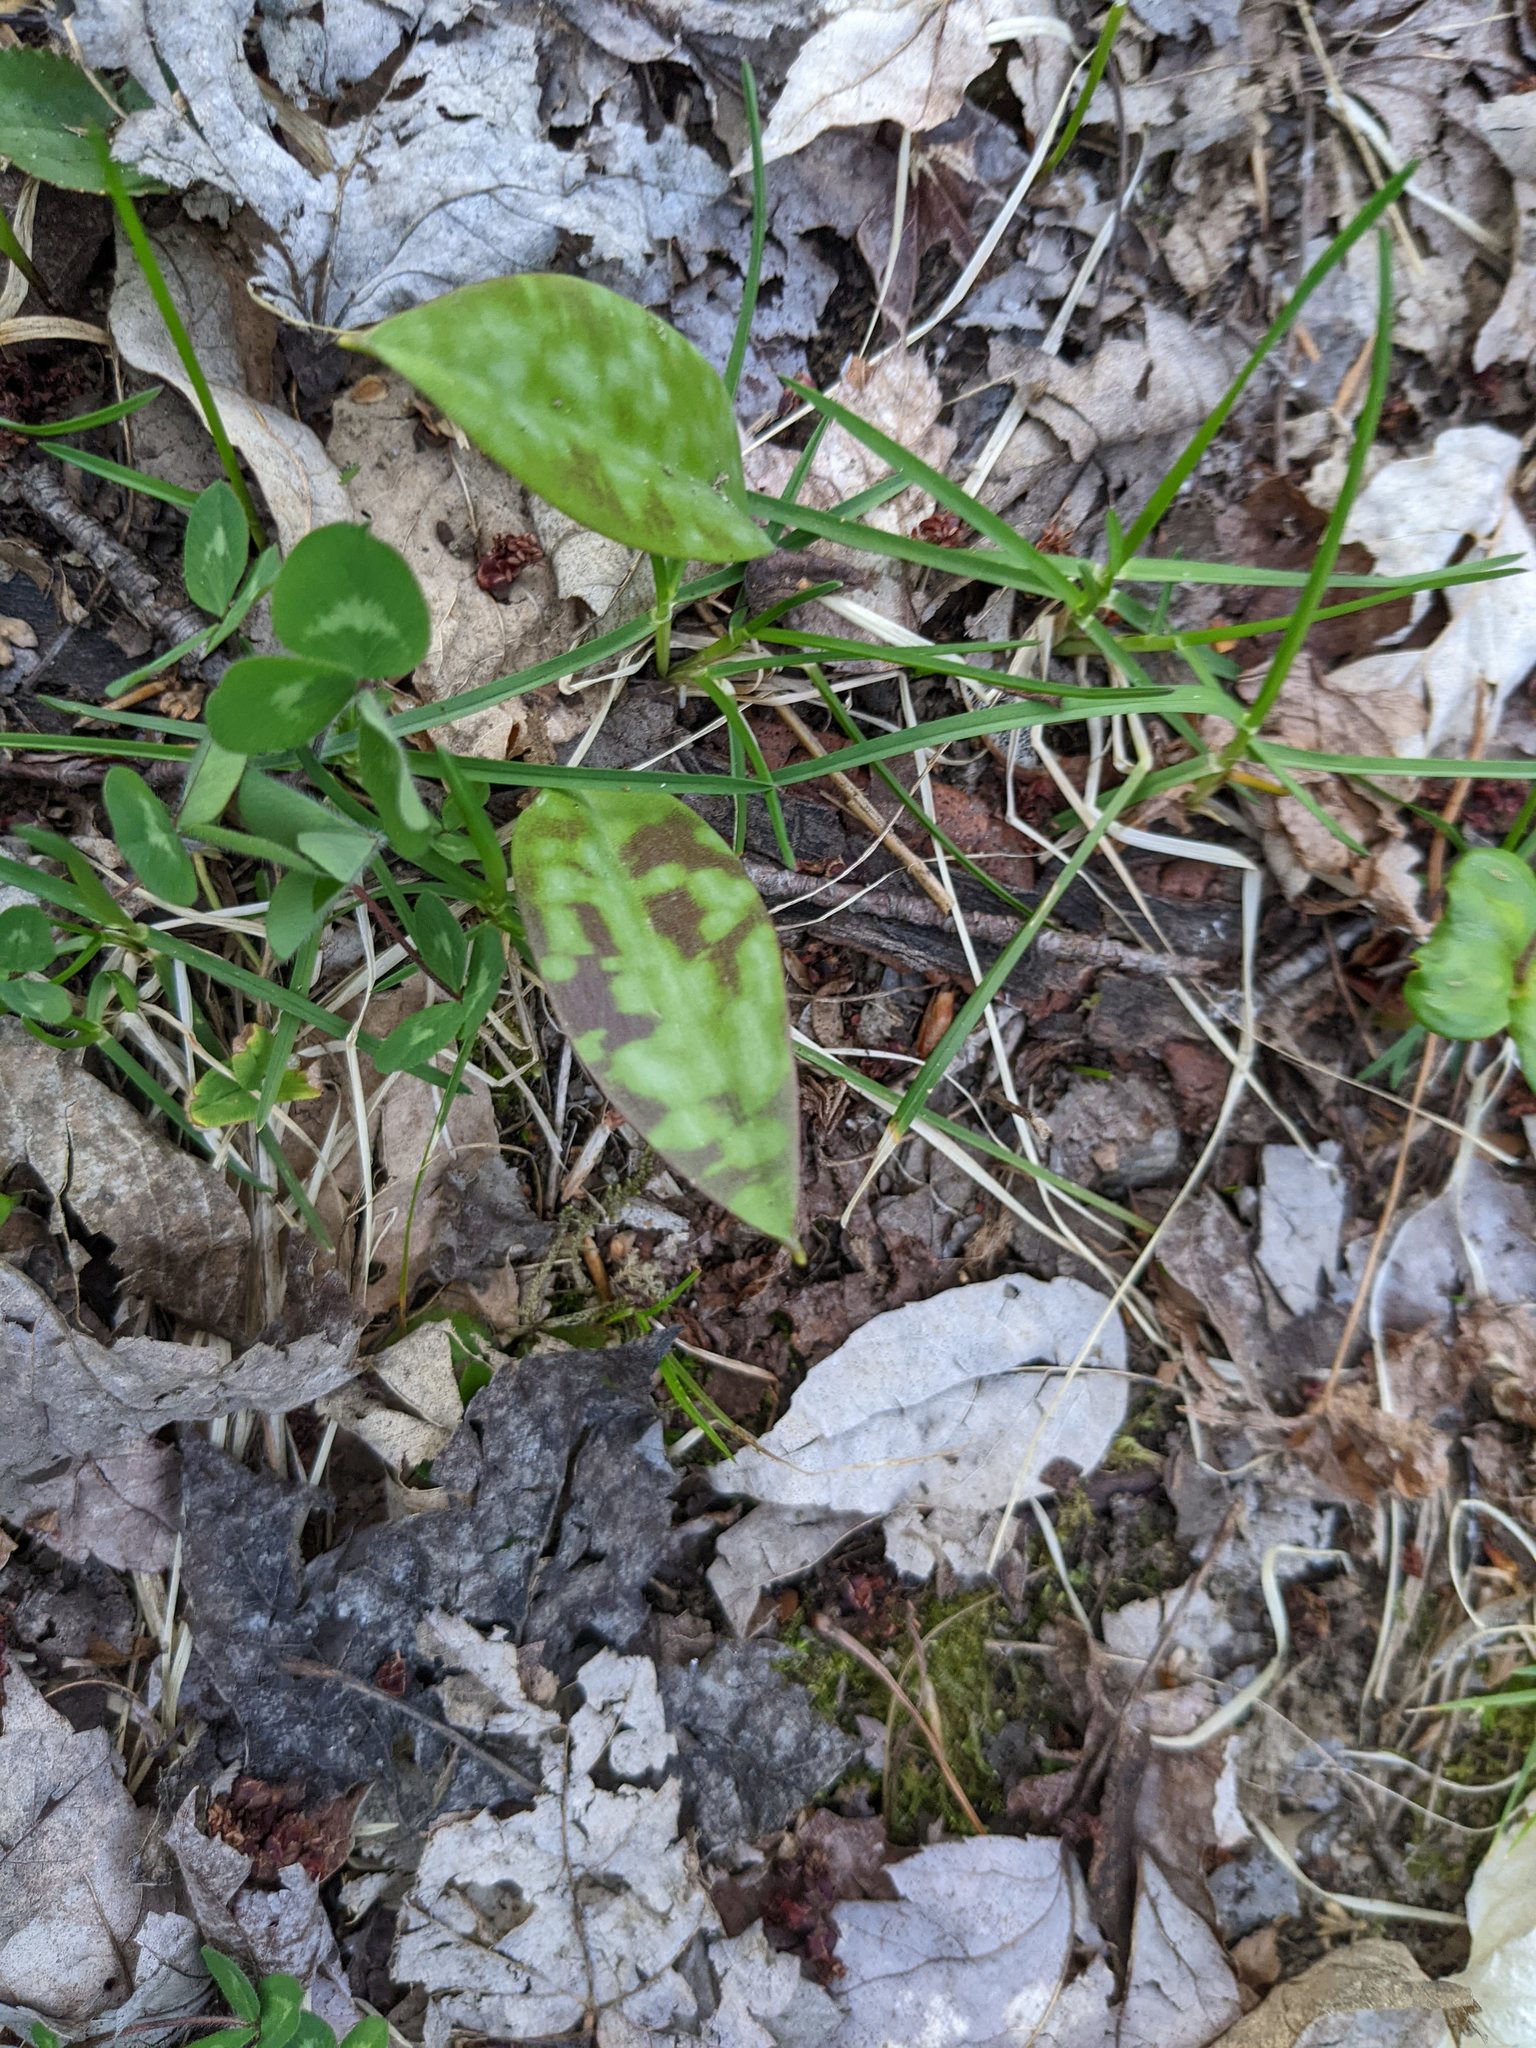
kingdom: Plantae
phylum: Tracheophyta
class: Liliopsida
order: Liliales
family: Liliaceae
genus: Erythronium
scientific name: Erythronium americanum
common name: Yellow adder's-tongue
